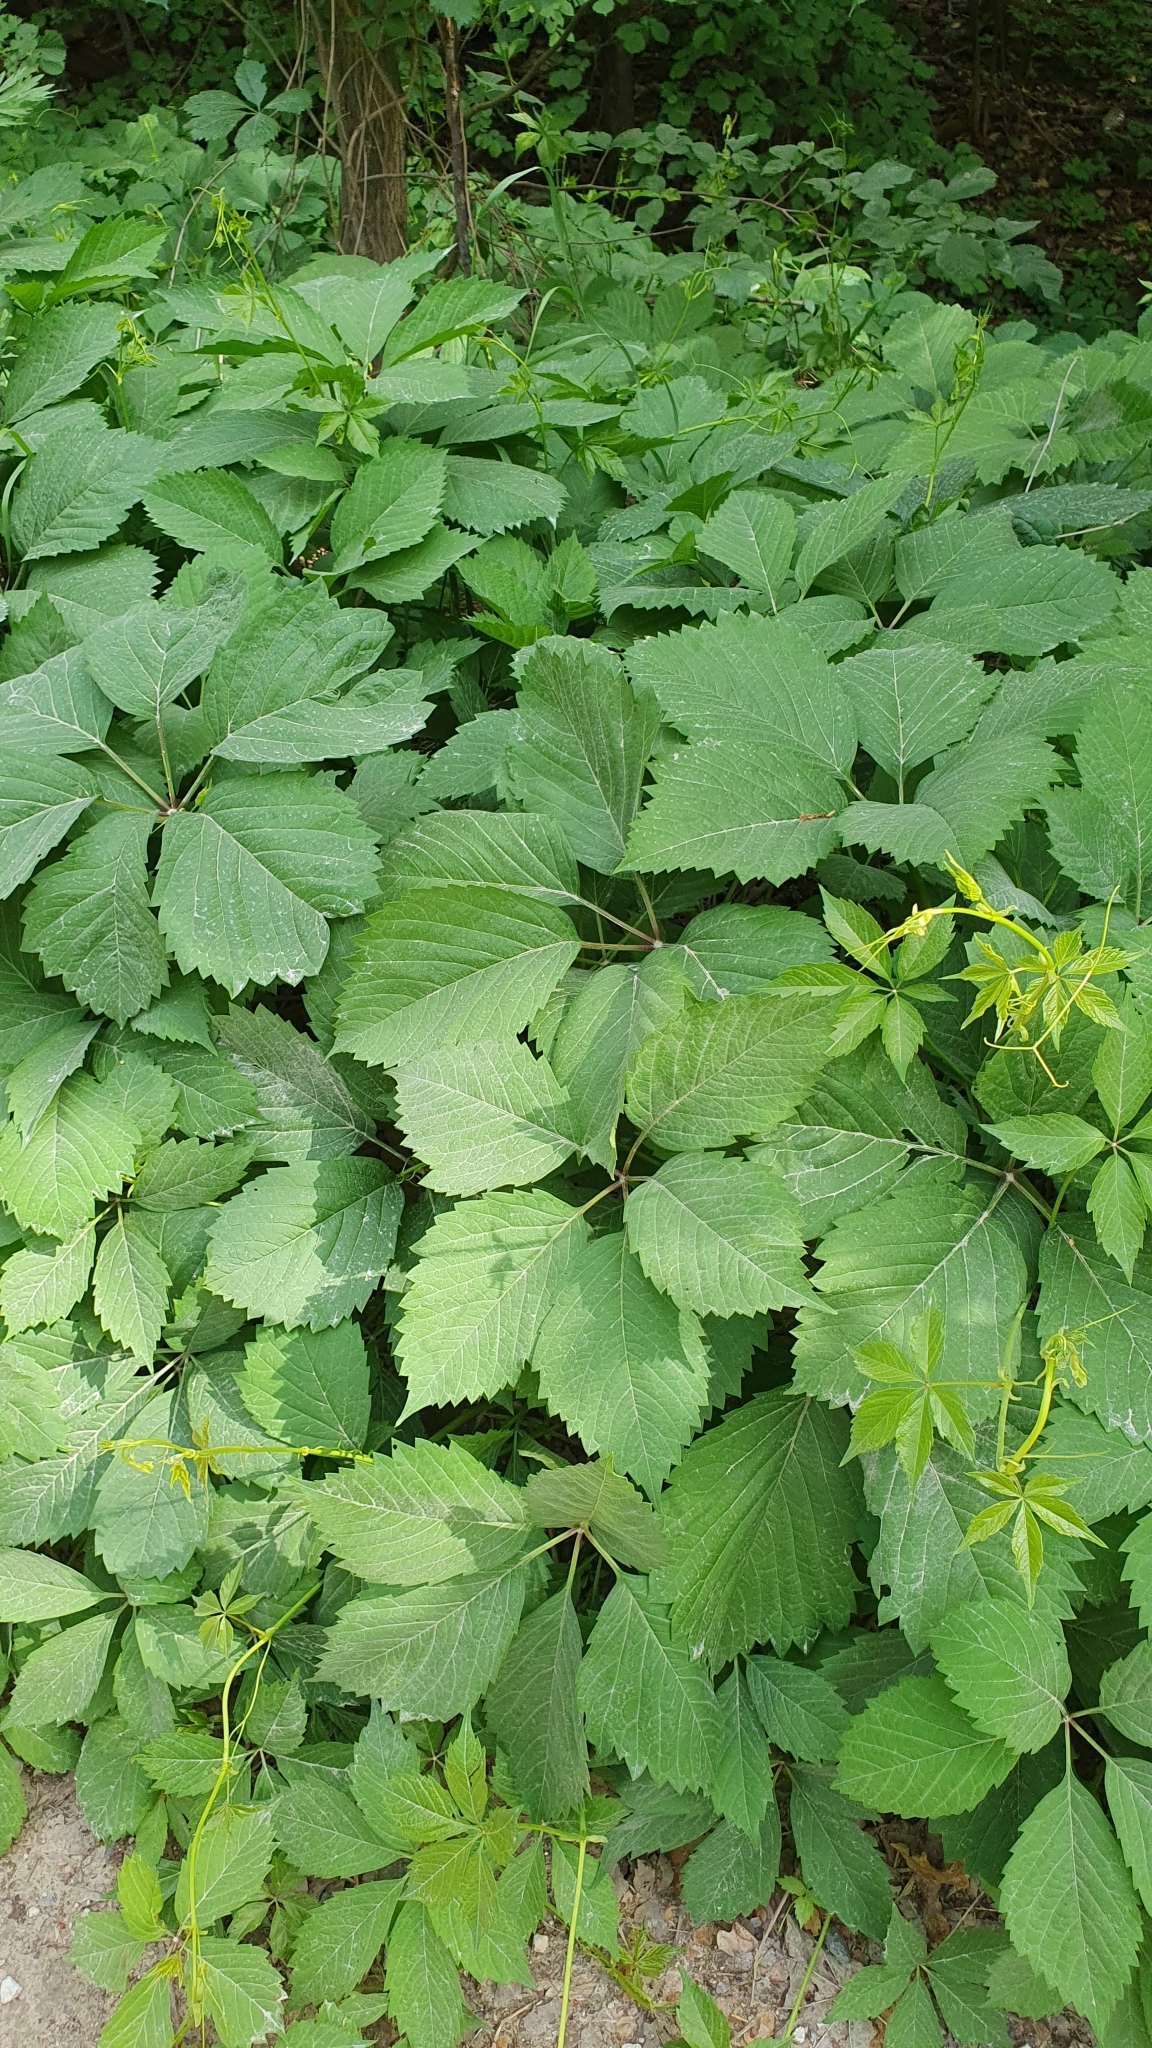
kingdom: Plantae
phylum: Tracheophyta
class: Magnoliopsida
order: Vitales
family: Vitaceae
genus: Parthenocissus
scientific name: Parthenocissus inserta
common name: False virginia-creeper
